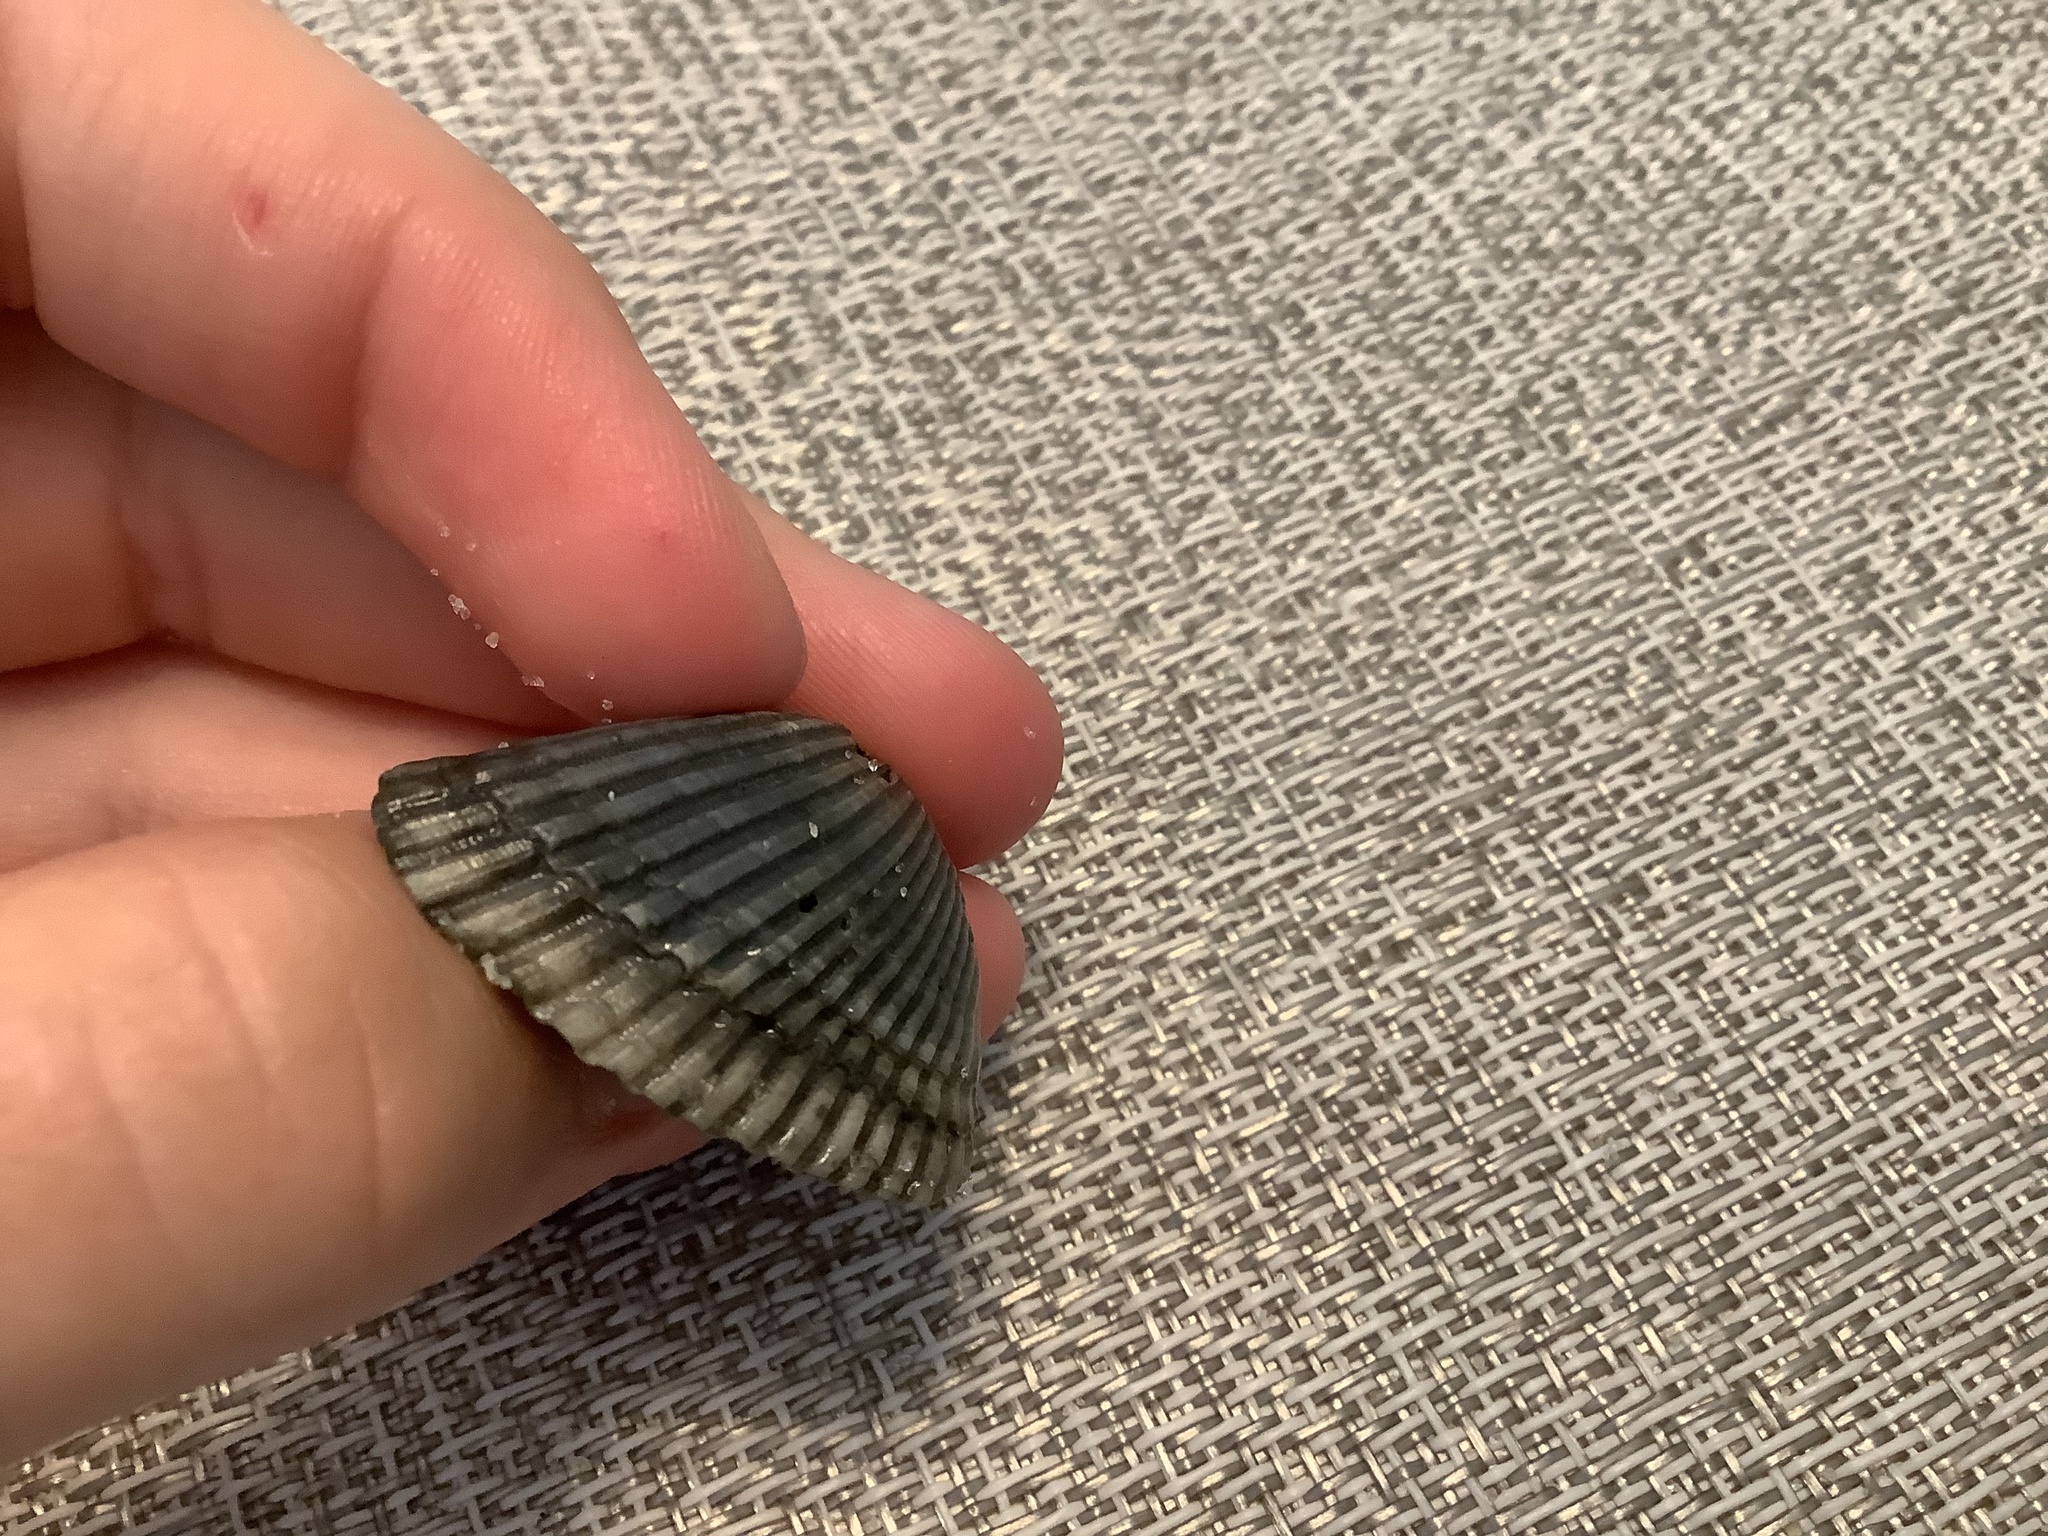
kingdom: Animalia
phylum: Mollusca
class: Bivalvia
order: Arcida
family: Noetiidae
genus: Noetia
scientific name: Noetia ponderosa
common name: Ponderous ark
